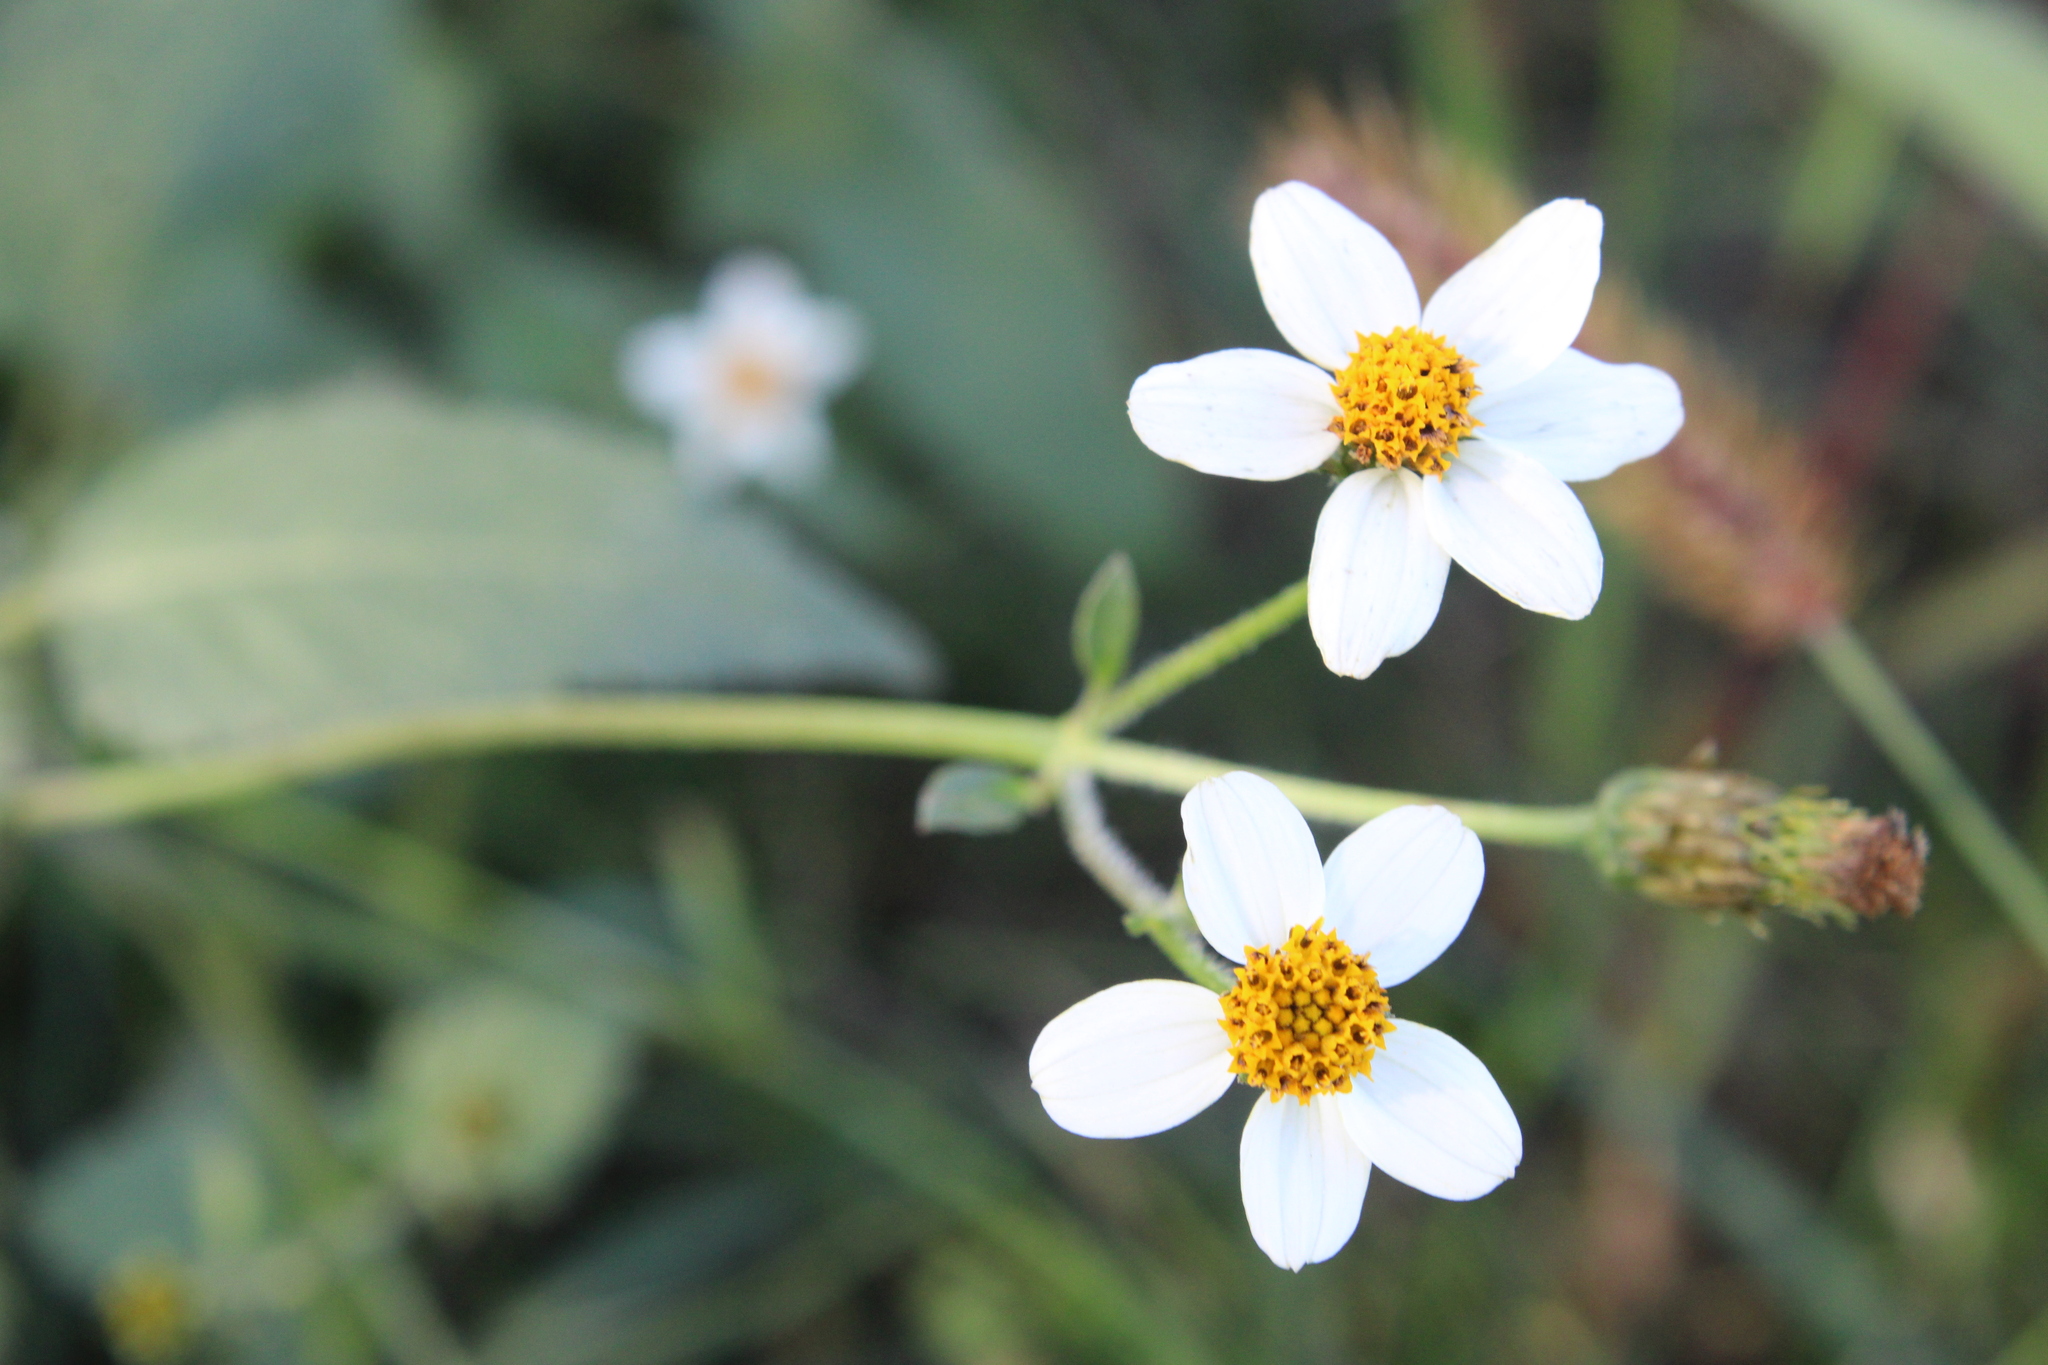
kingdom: Plantae
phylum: Tracheophyta
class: Magnoliopsida
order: Asterales
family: Asteraceae
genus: Bidens
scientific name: Bidens pilosa
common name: Black-jack
